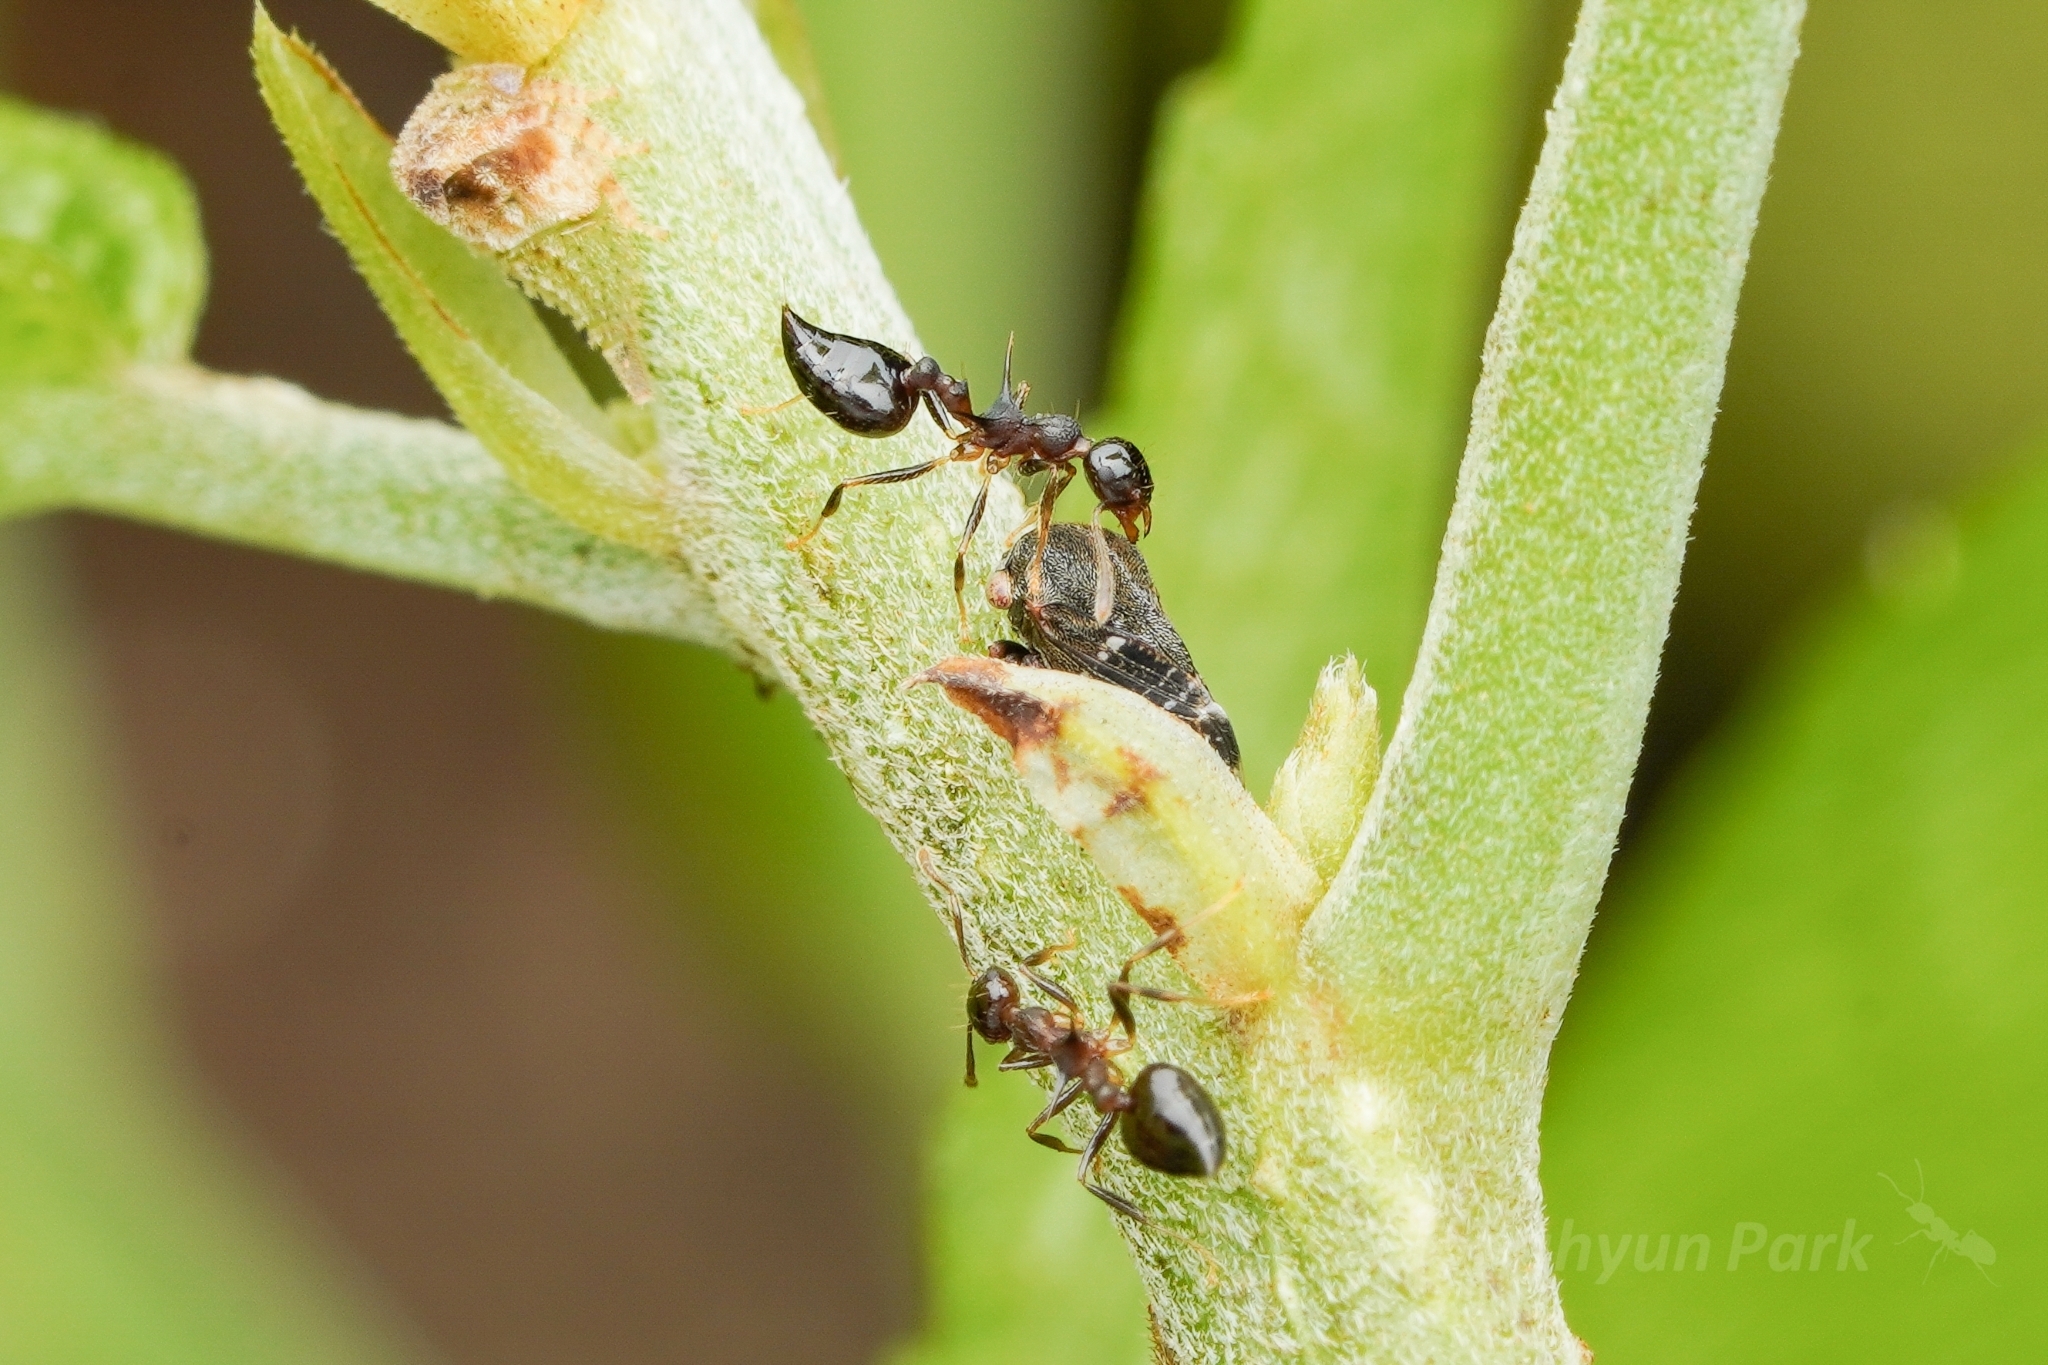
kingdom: Animalia
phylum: Arthropoda
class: Insecta
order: Hymenoptera
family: Formicidae
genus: Crematogaster
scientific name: Crematogaster macracantha
